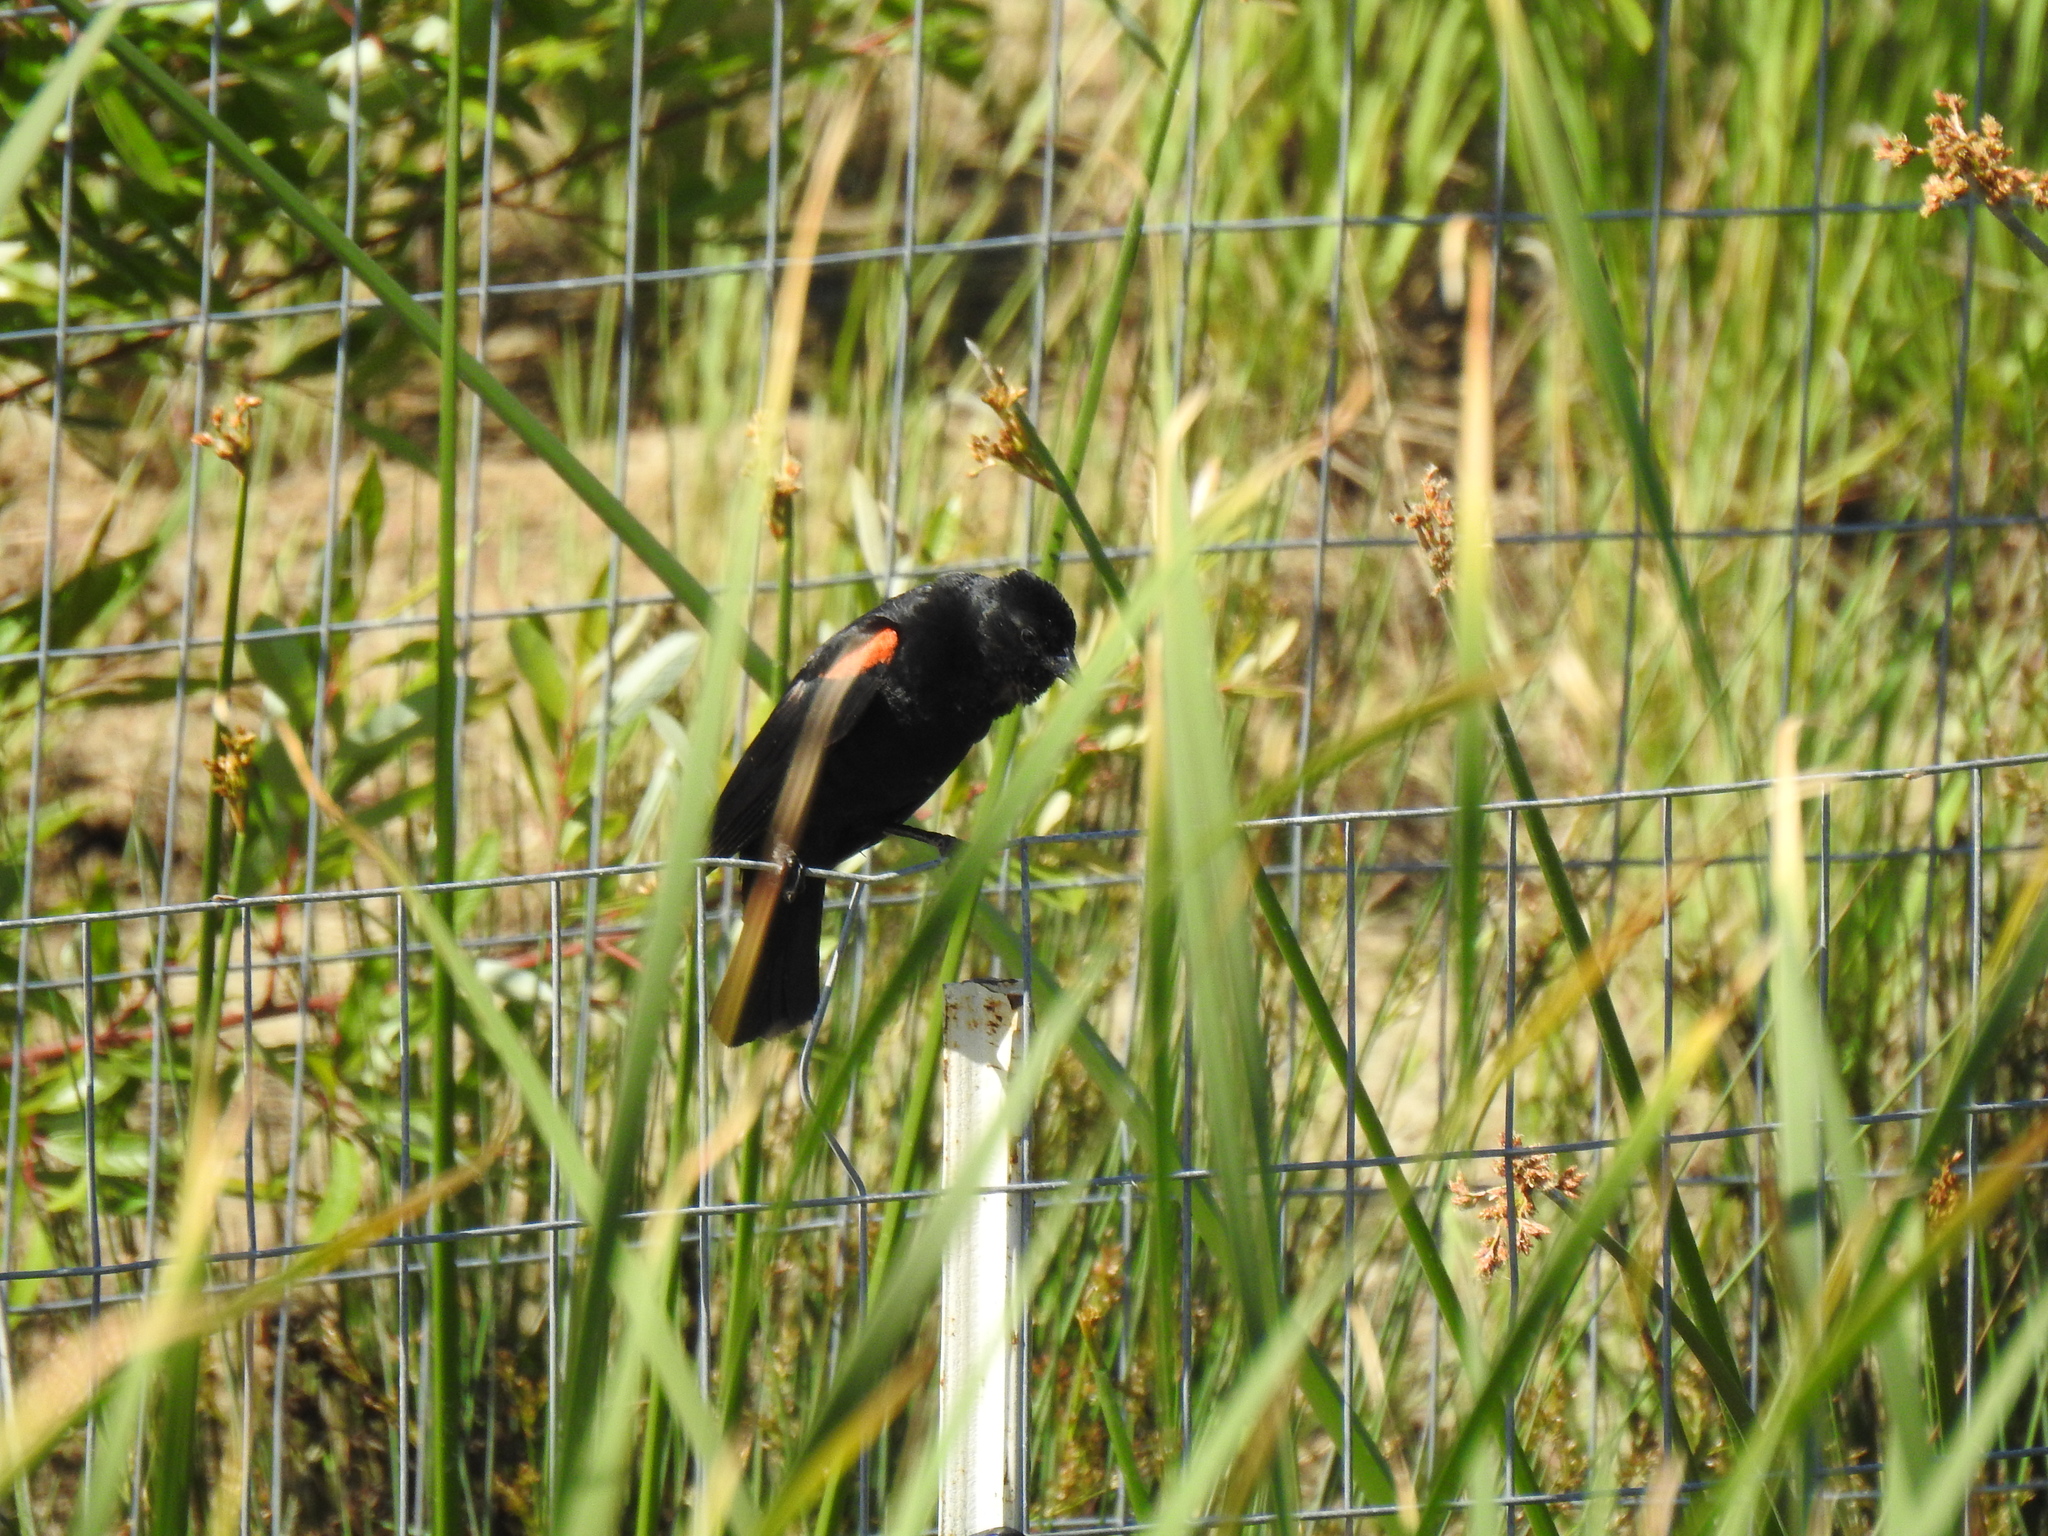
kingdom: Animalia
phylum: Chordata
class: Aves
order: Passeriformes
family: Icteridae
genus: Agelaius
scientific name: Agelaius phoeniceus
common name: Red-winged blackbird
